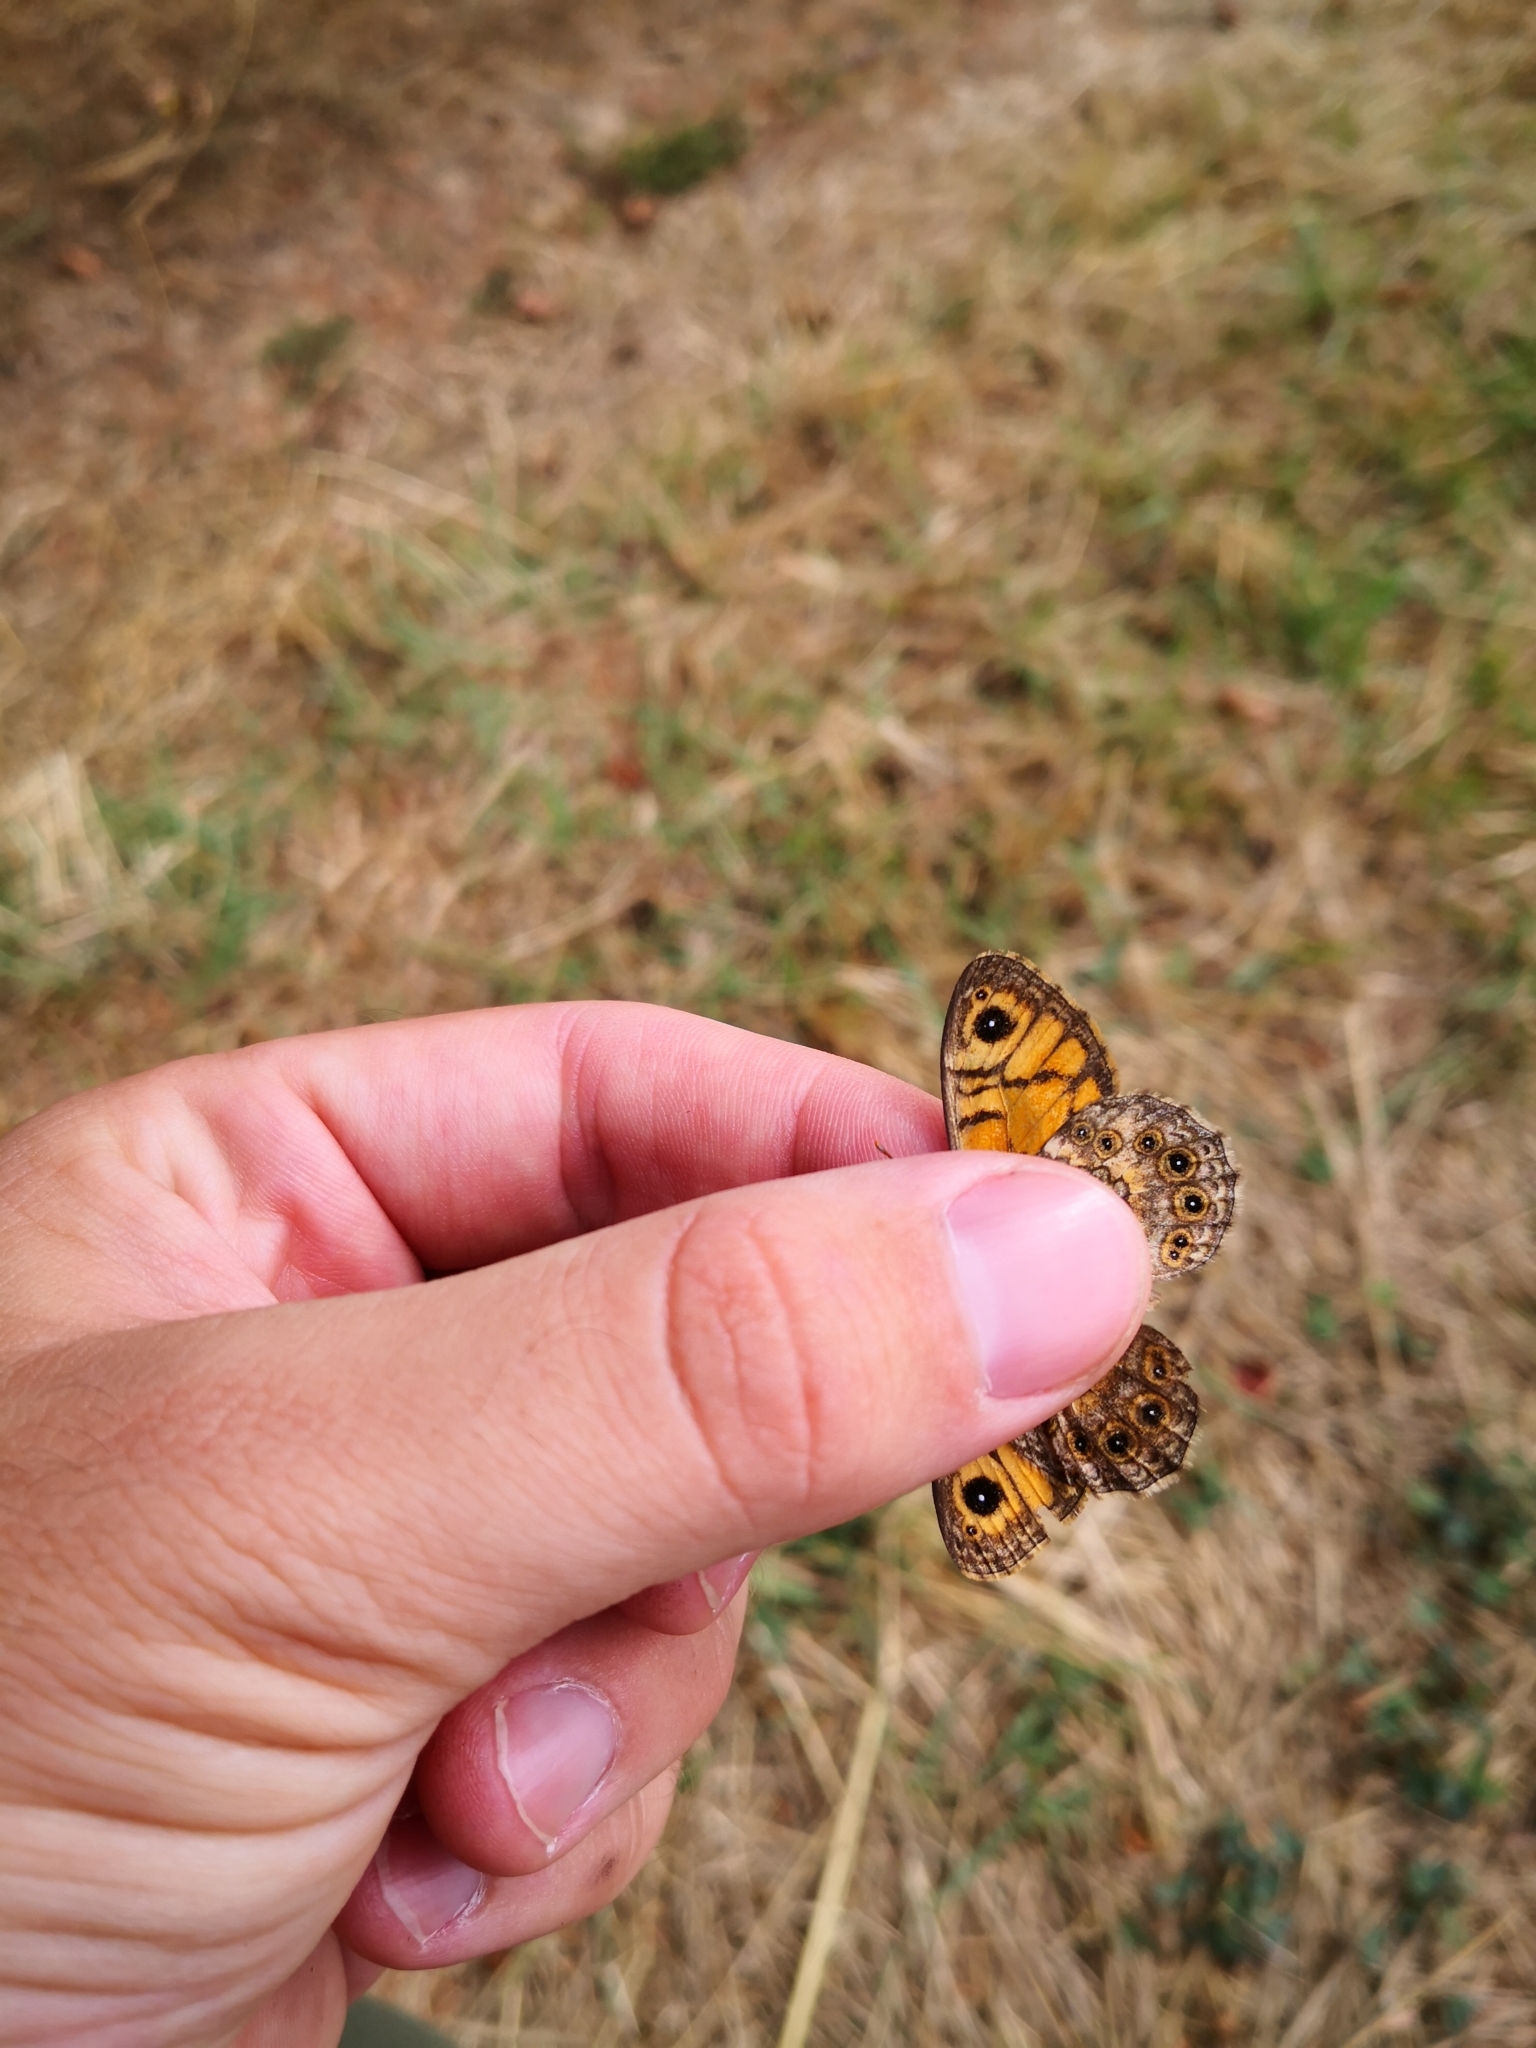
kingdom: Animalia
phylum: Arthropoda
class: Insecta
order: Lepidoptera
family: Nymphalidae
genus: Pararge
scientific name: Pararge Lasiommata megera
